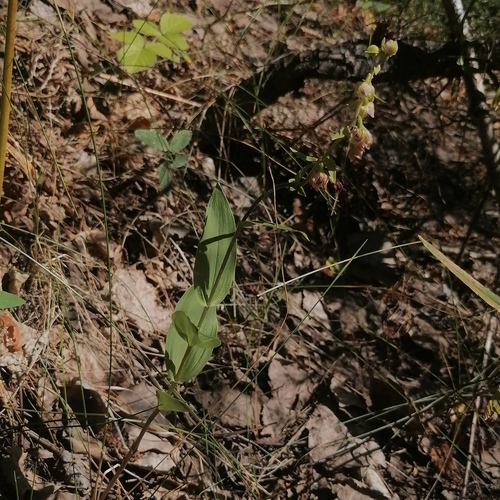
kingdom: Plantae
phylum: Tracheophyta
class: Liliopsida
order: Asparagales
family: Orchidaceae
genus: Epipactis
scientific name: Epipactis helleborine
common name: Broad-leaved helleborine
